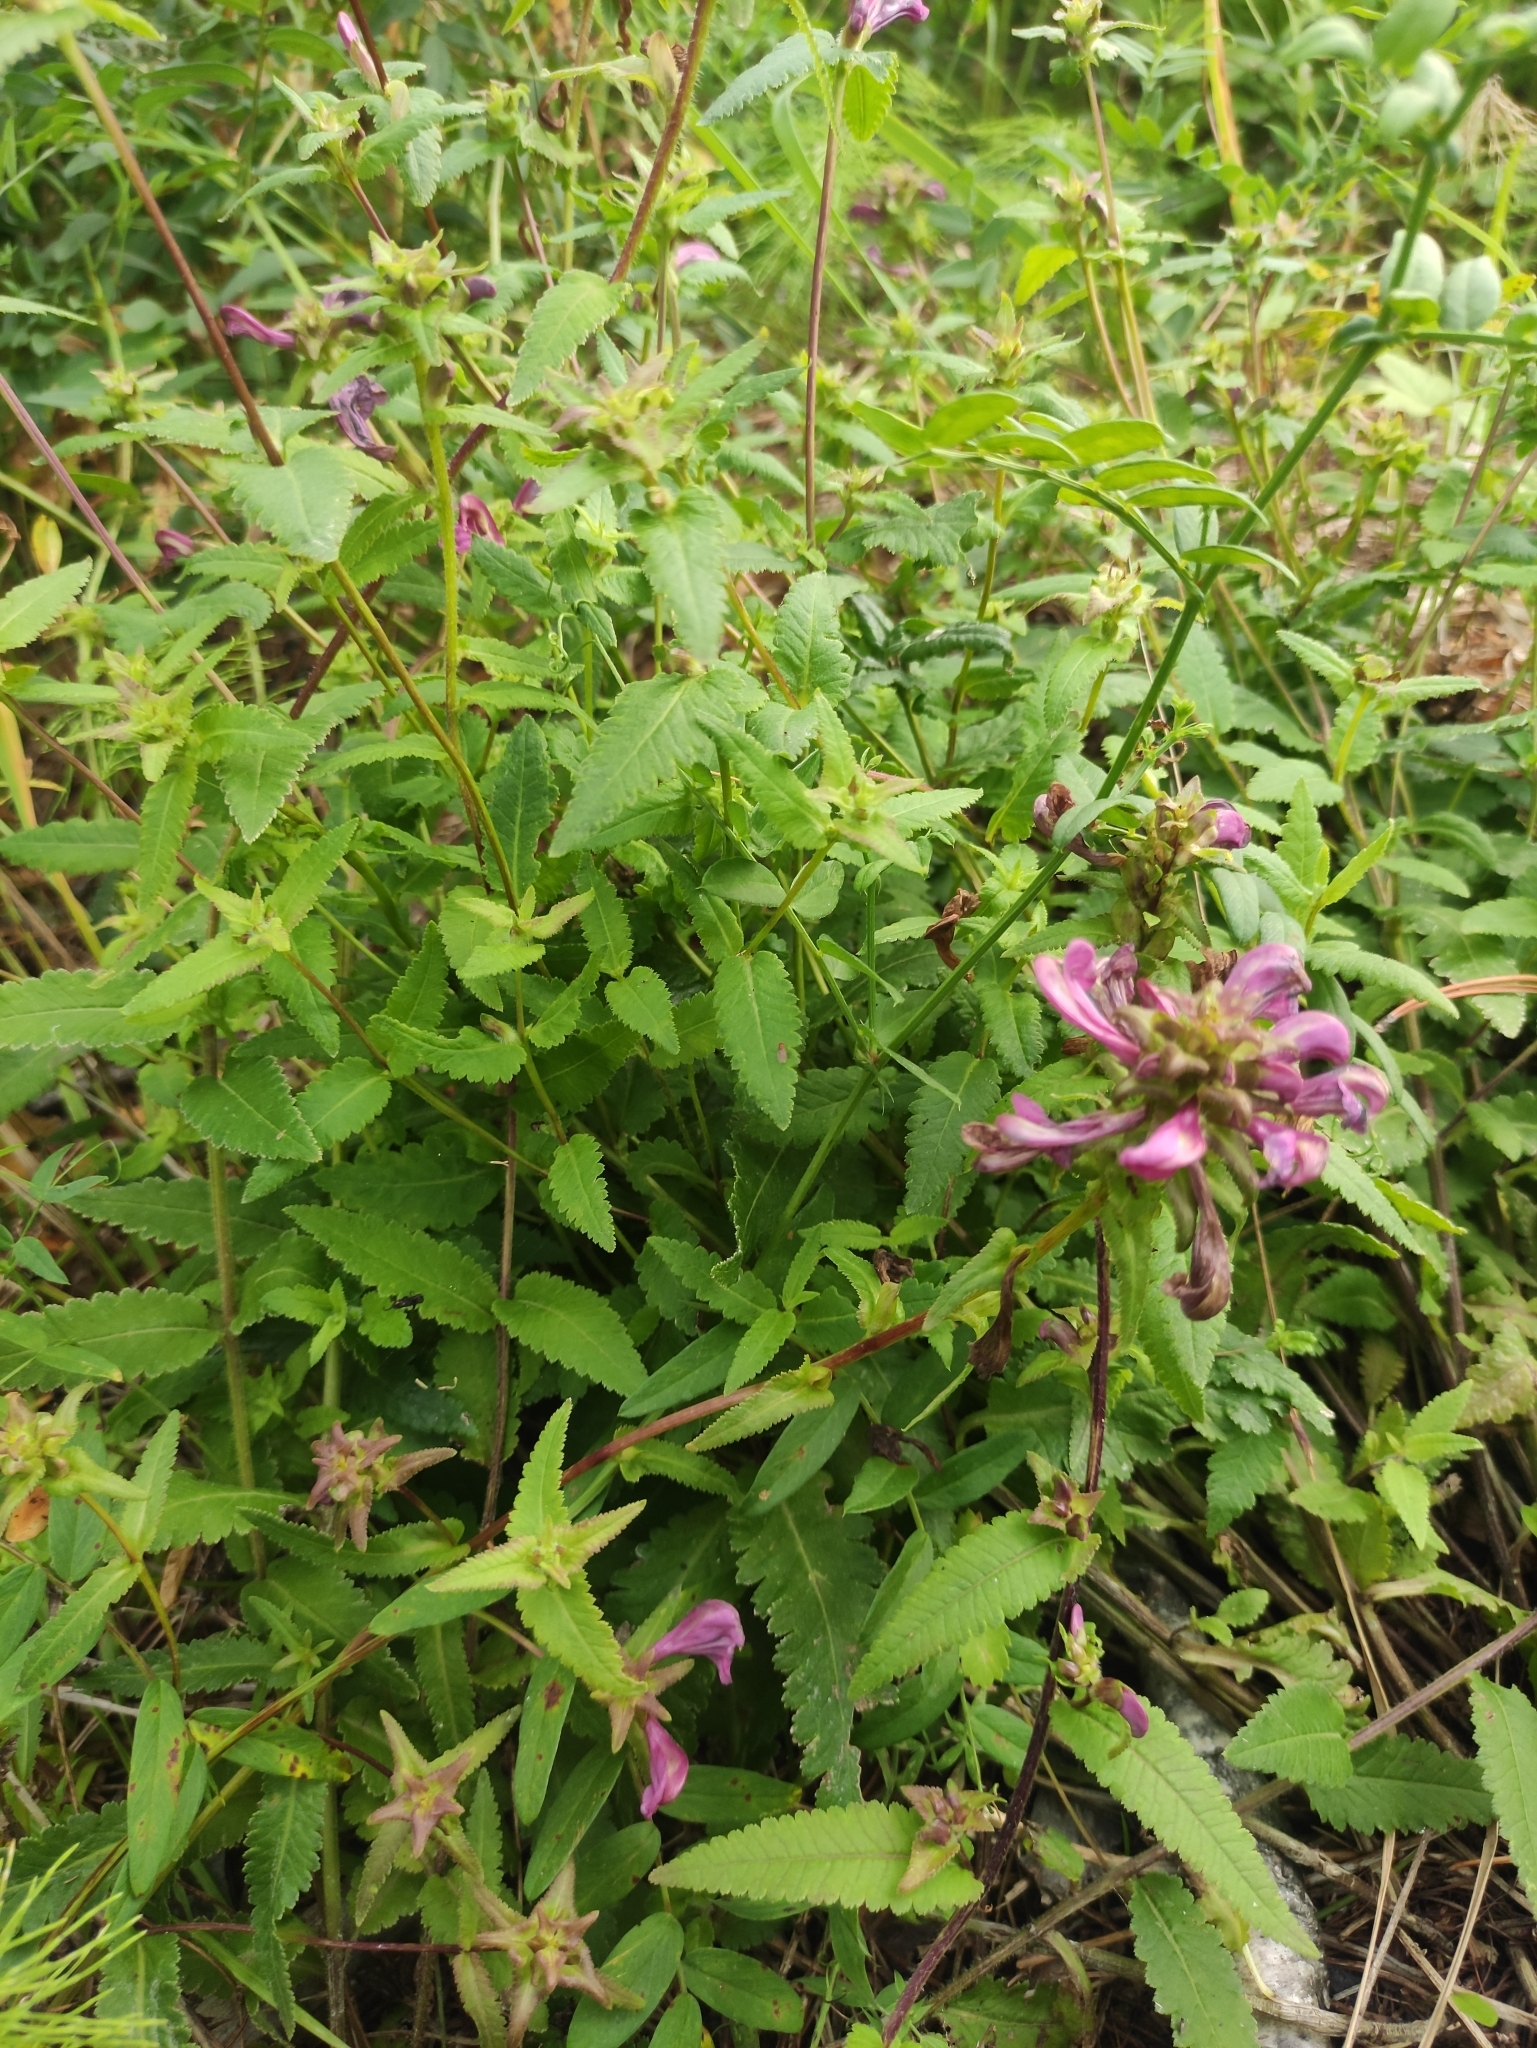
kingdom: Plantae
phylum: Tracheophyta
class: Magnoliopsida
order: Lamiales
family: Orobanchaceae
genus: Pedicularis
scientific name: Pedicularis resupinata
